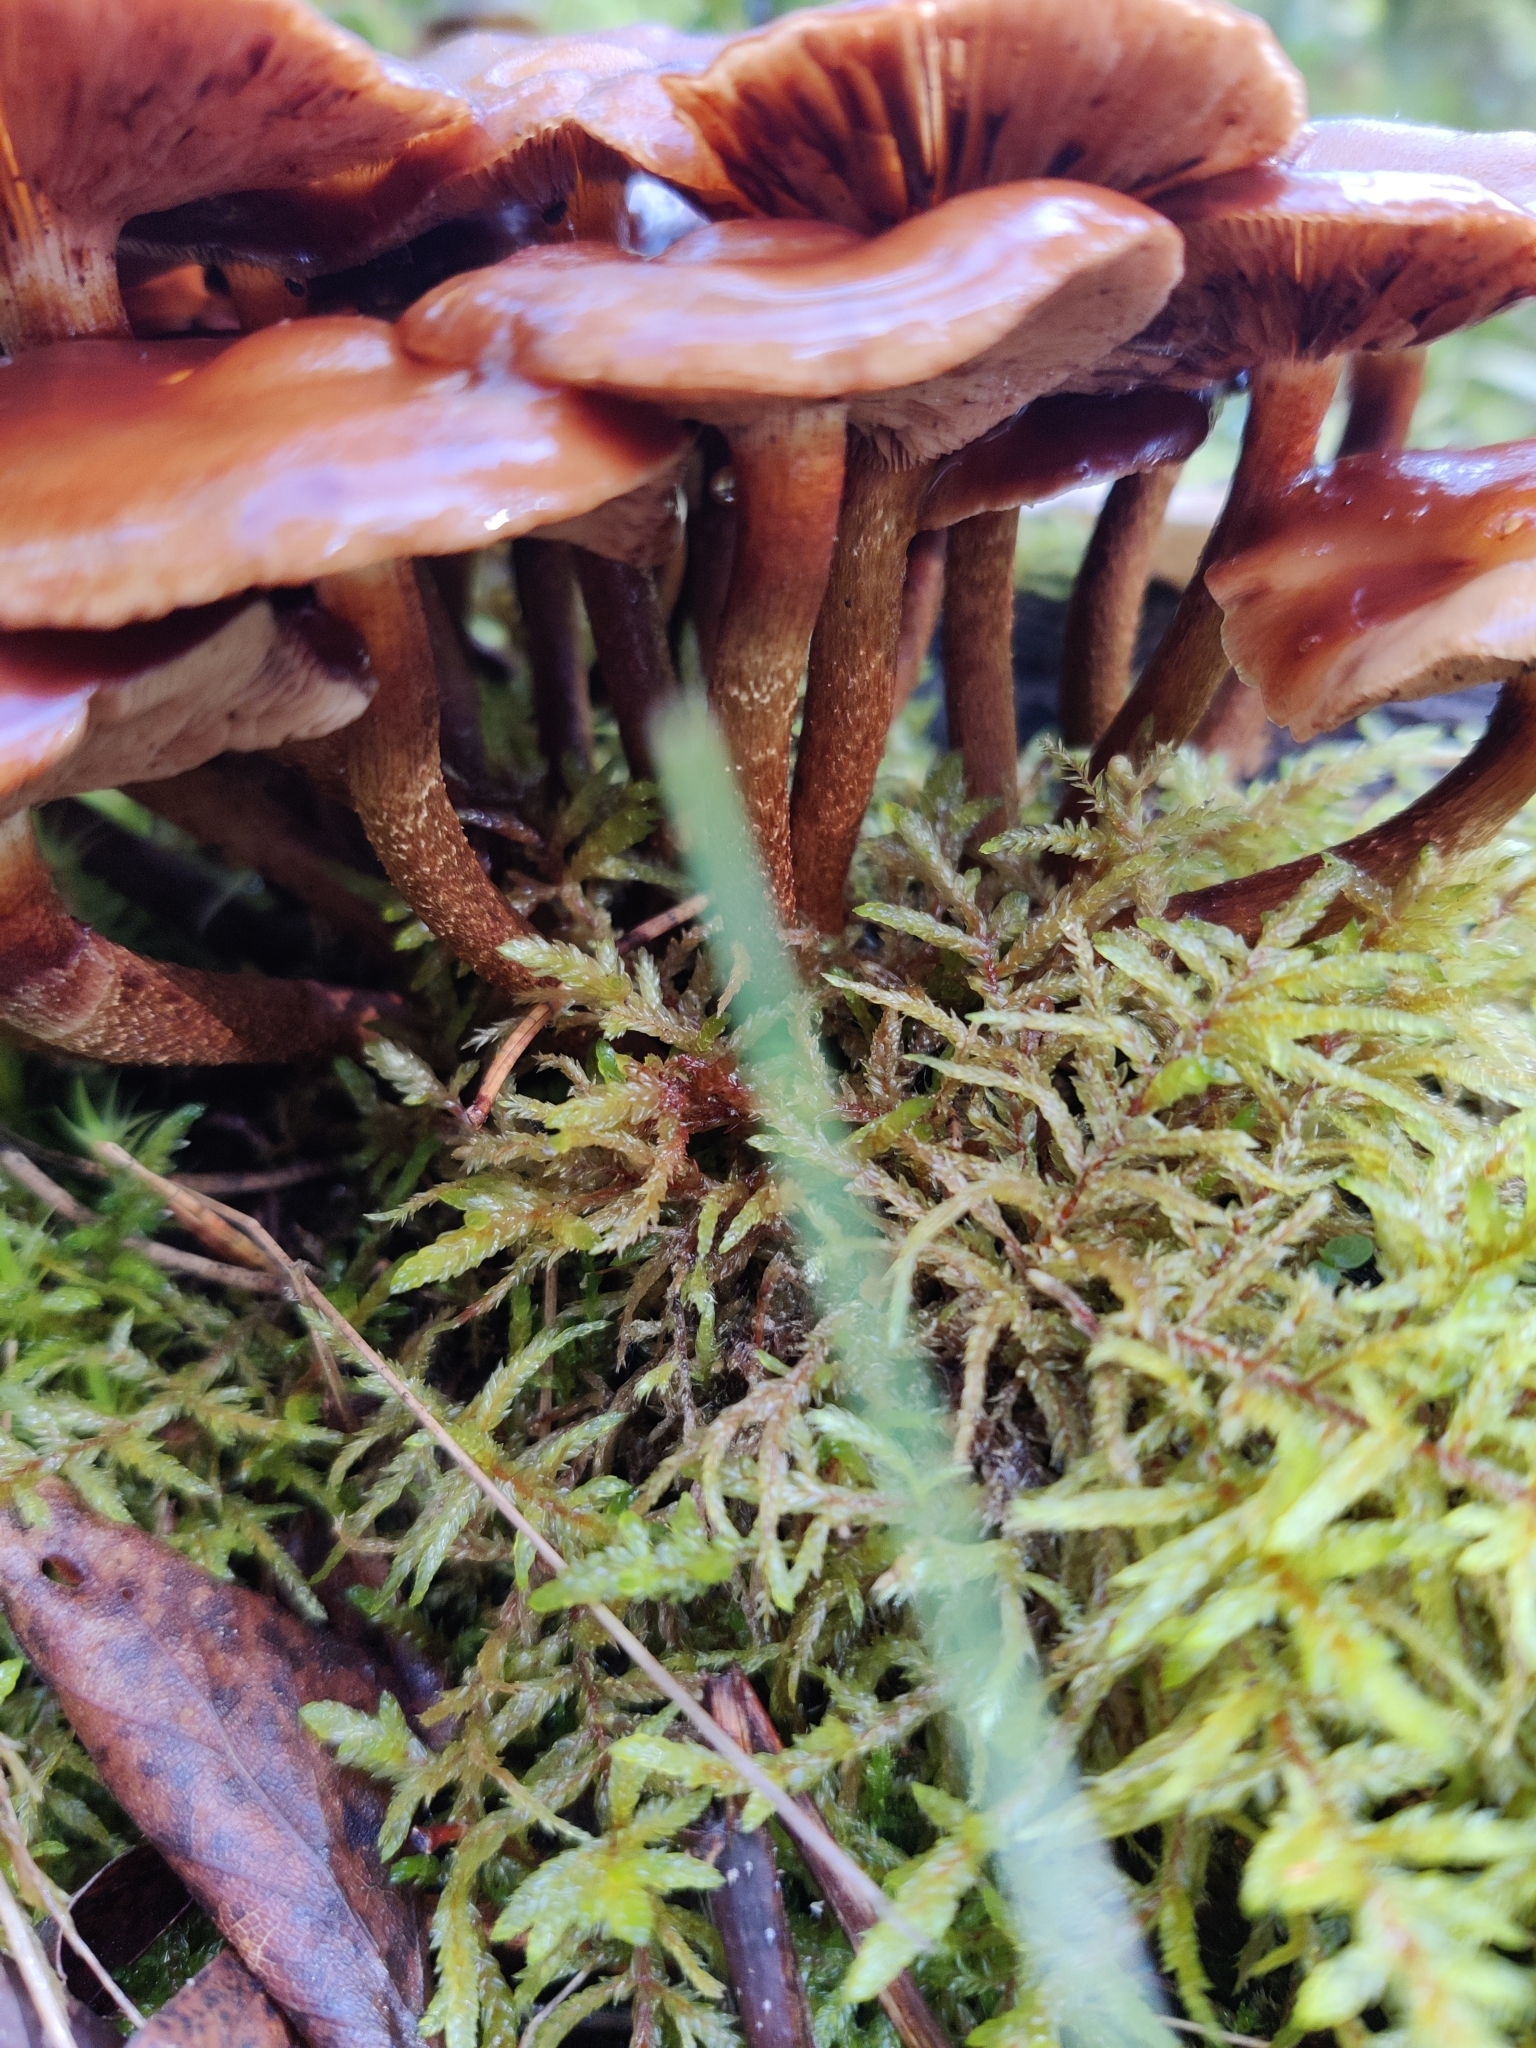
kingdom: Fungi
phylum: Basidiomycota
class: Agaricomycetes
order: Agaricales
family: Strophariaceae
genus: Kuehneromyces
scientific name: Kuehneromyces mutabilis
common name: Sheathed woodtuft
